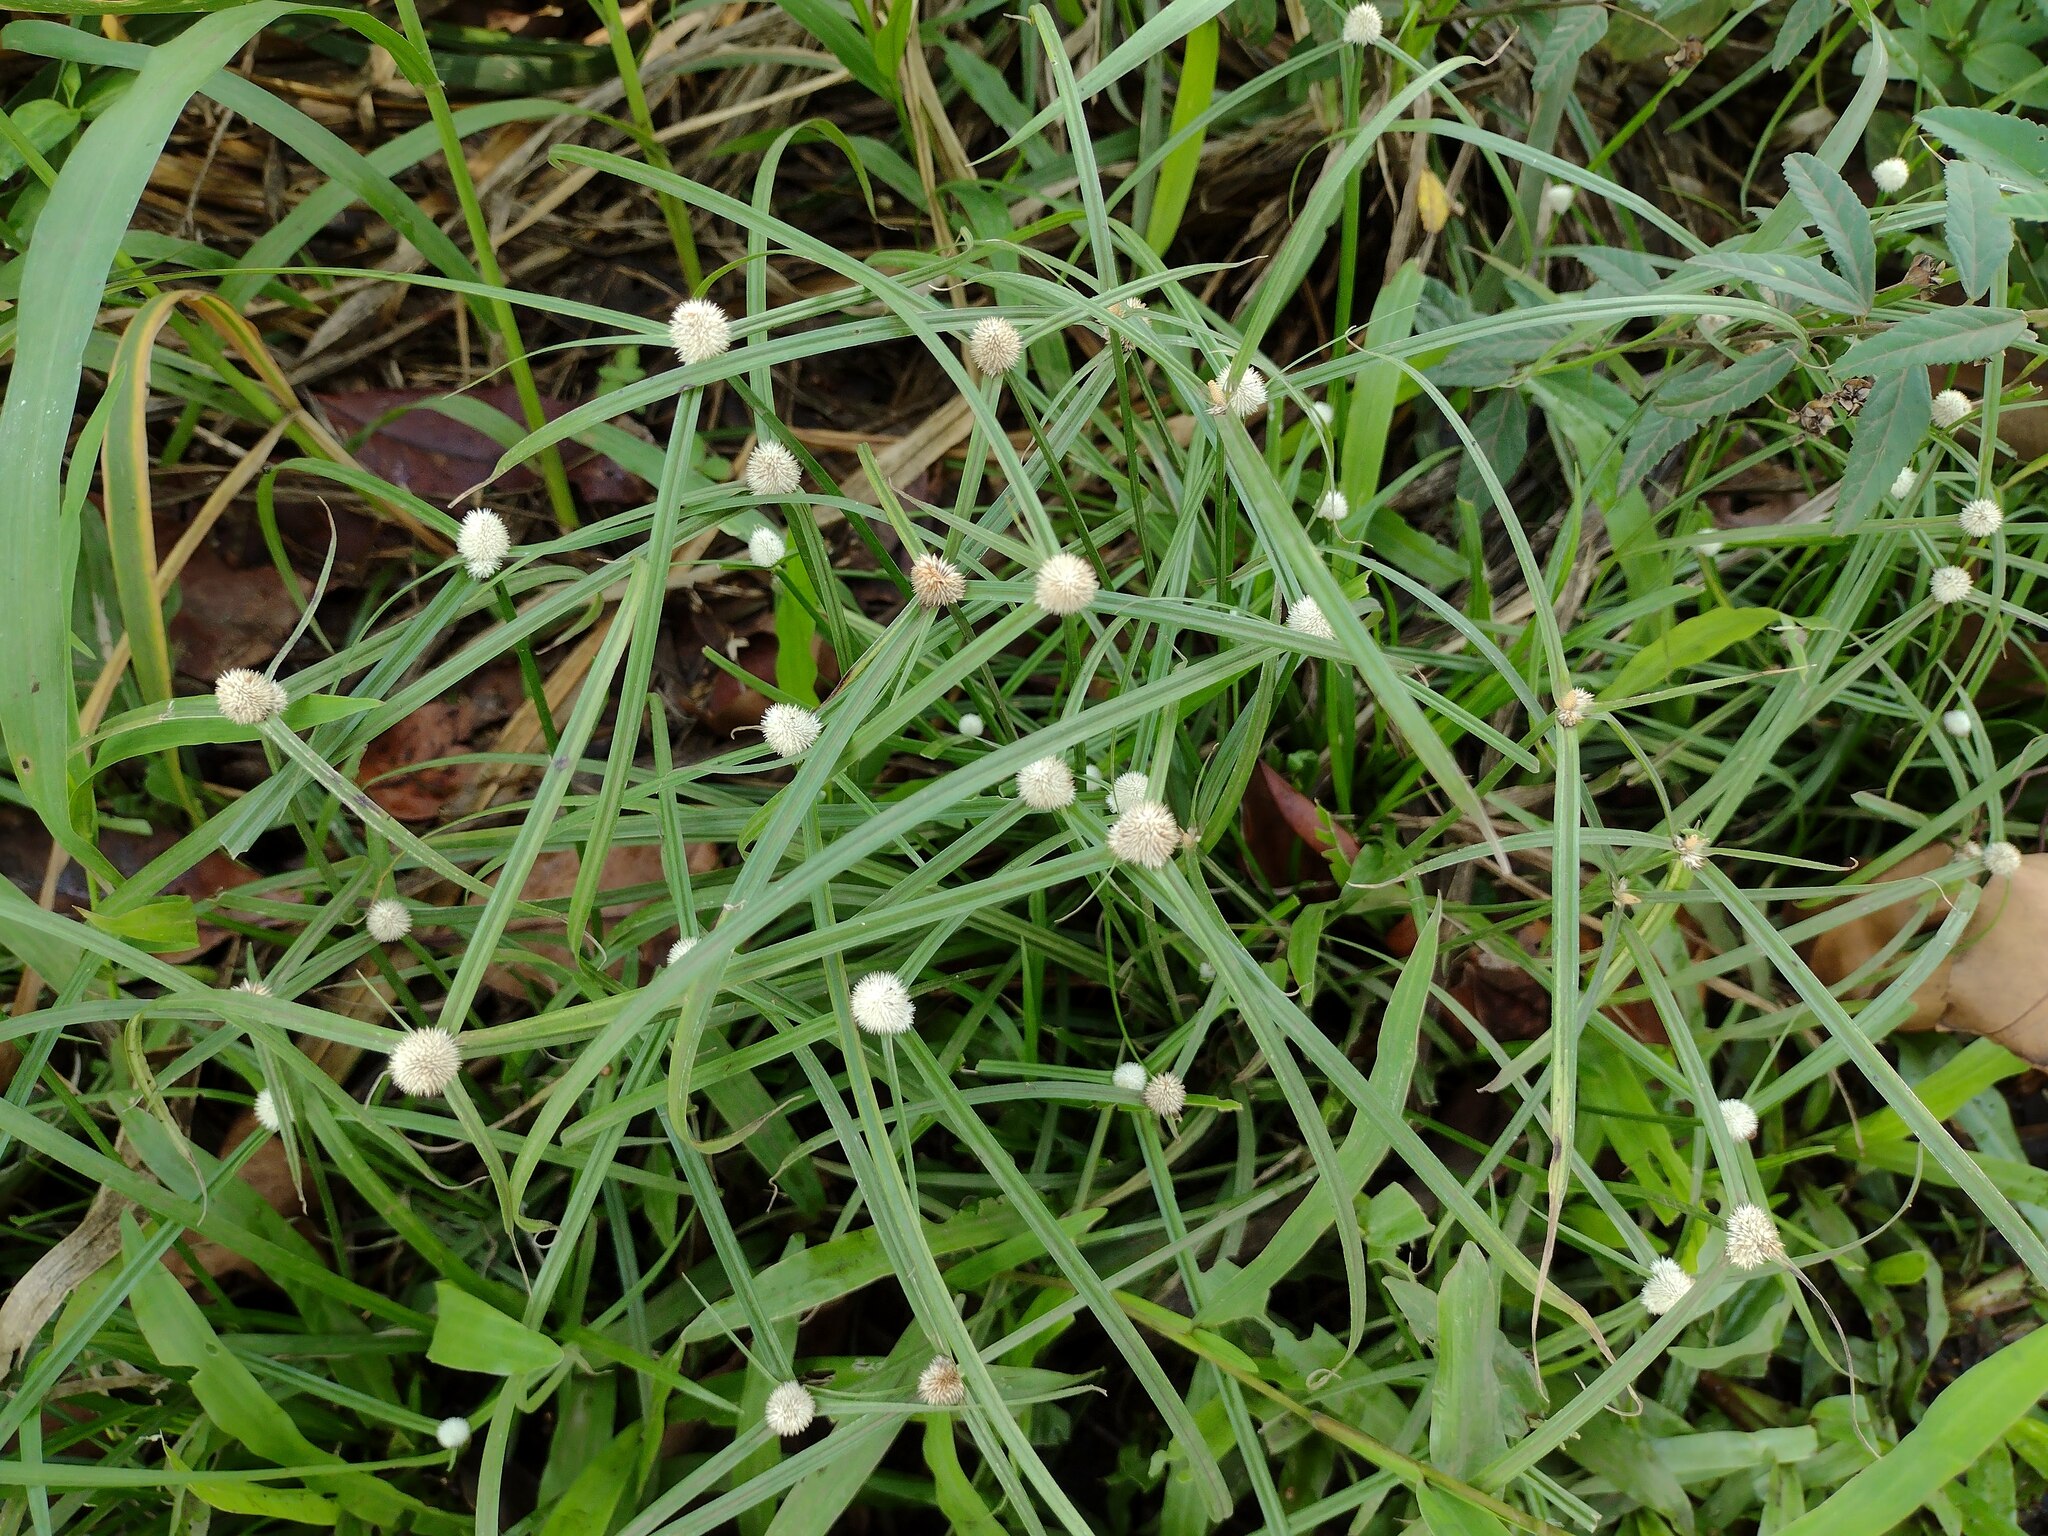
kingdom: Plantae
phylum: Tracheophyta
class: Liliopsida
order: Poales
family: Cyperaceae
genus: Cyperus
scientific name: Cyperus mindorensis
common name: Flatsedge
